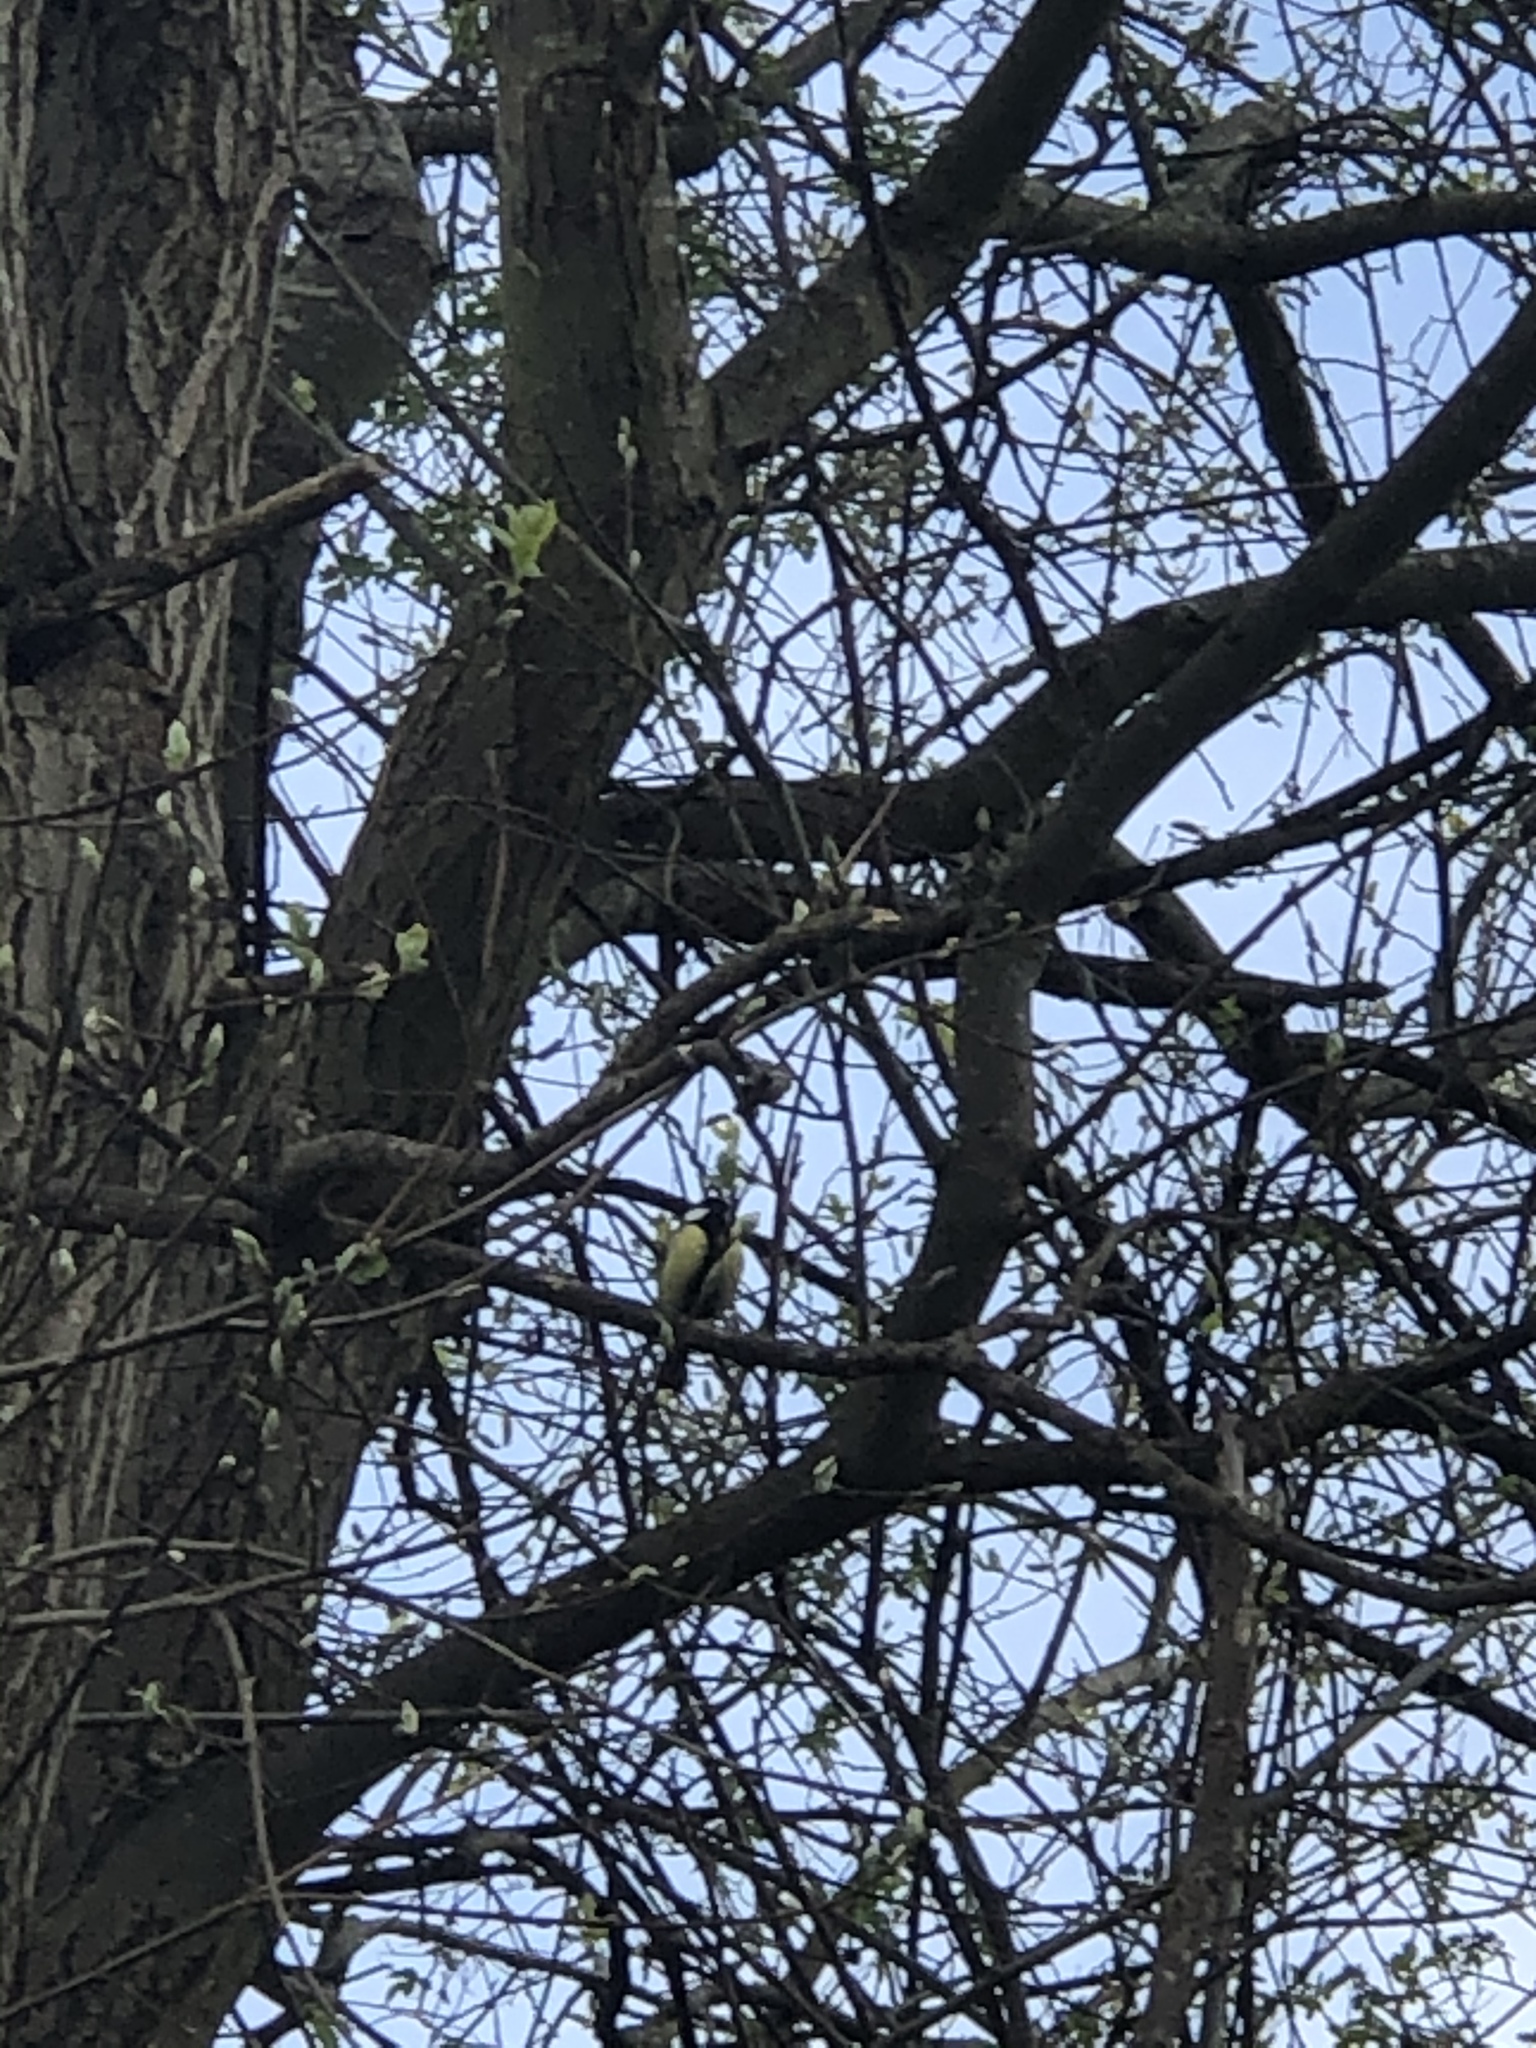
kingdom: Animalia
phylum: Chordata
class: Aves
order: Passeriformes
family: Paridae
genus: Parus
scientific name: Parus major
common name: Great tit
